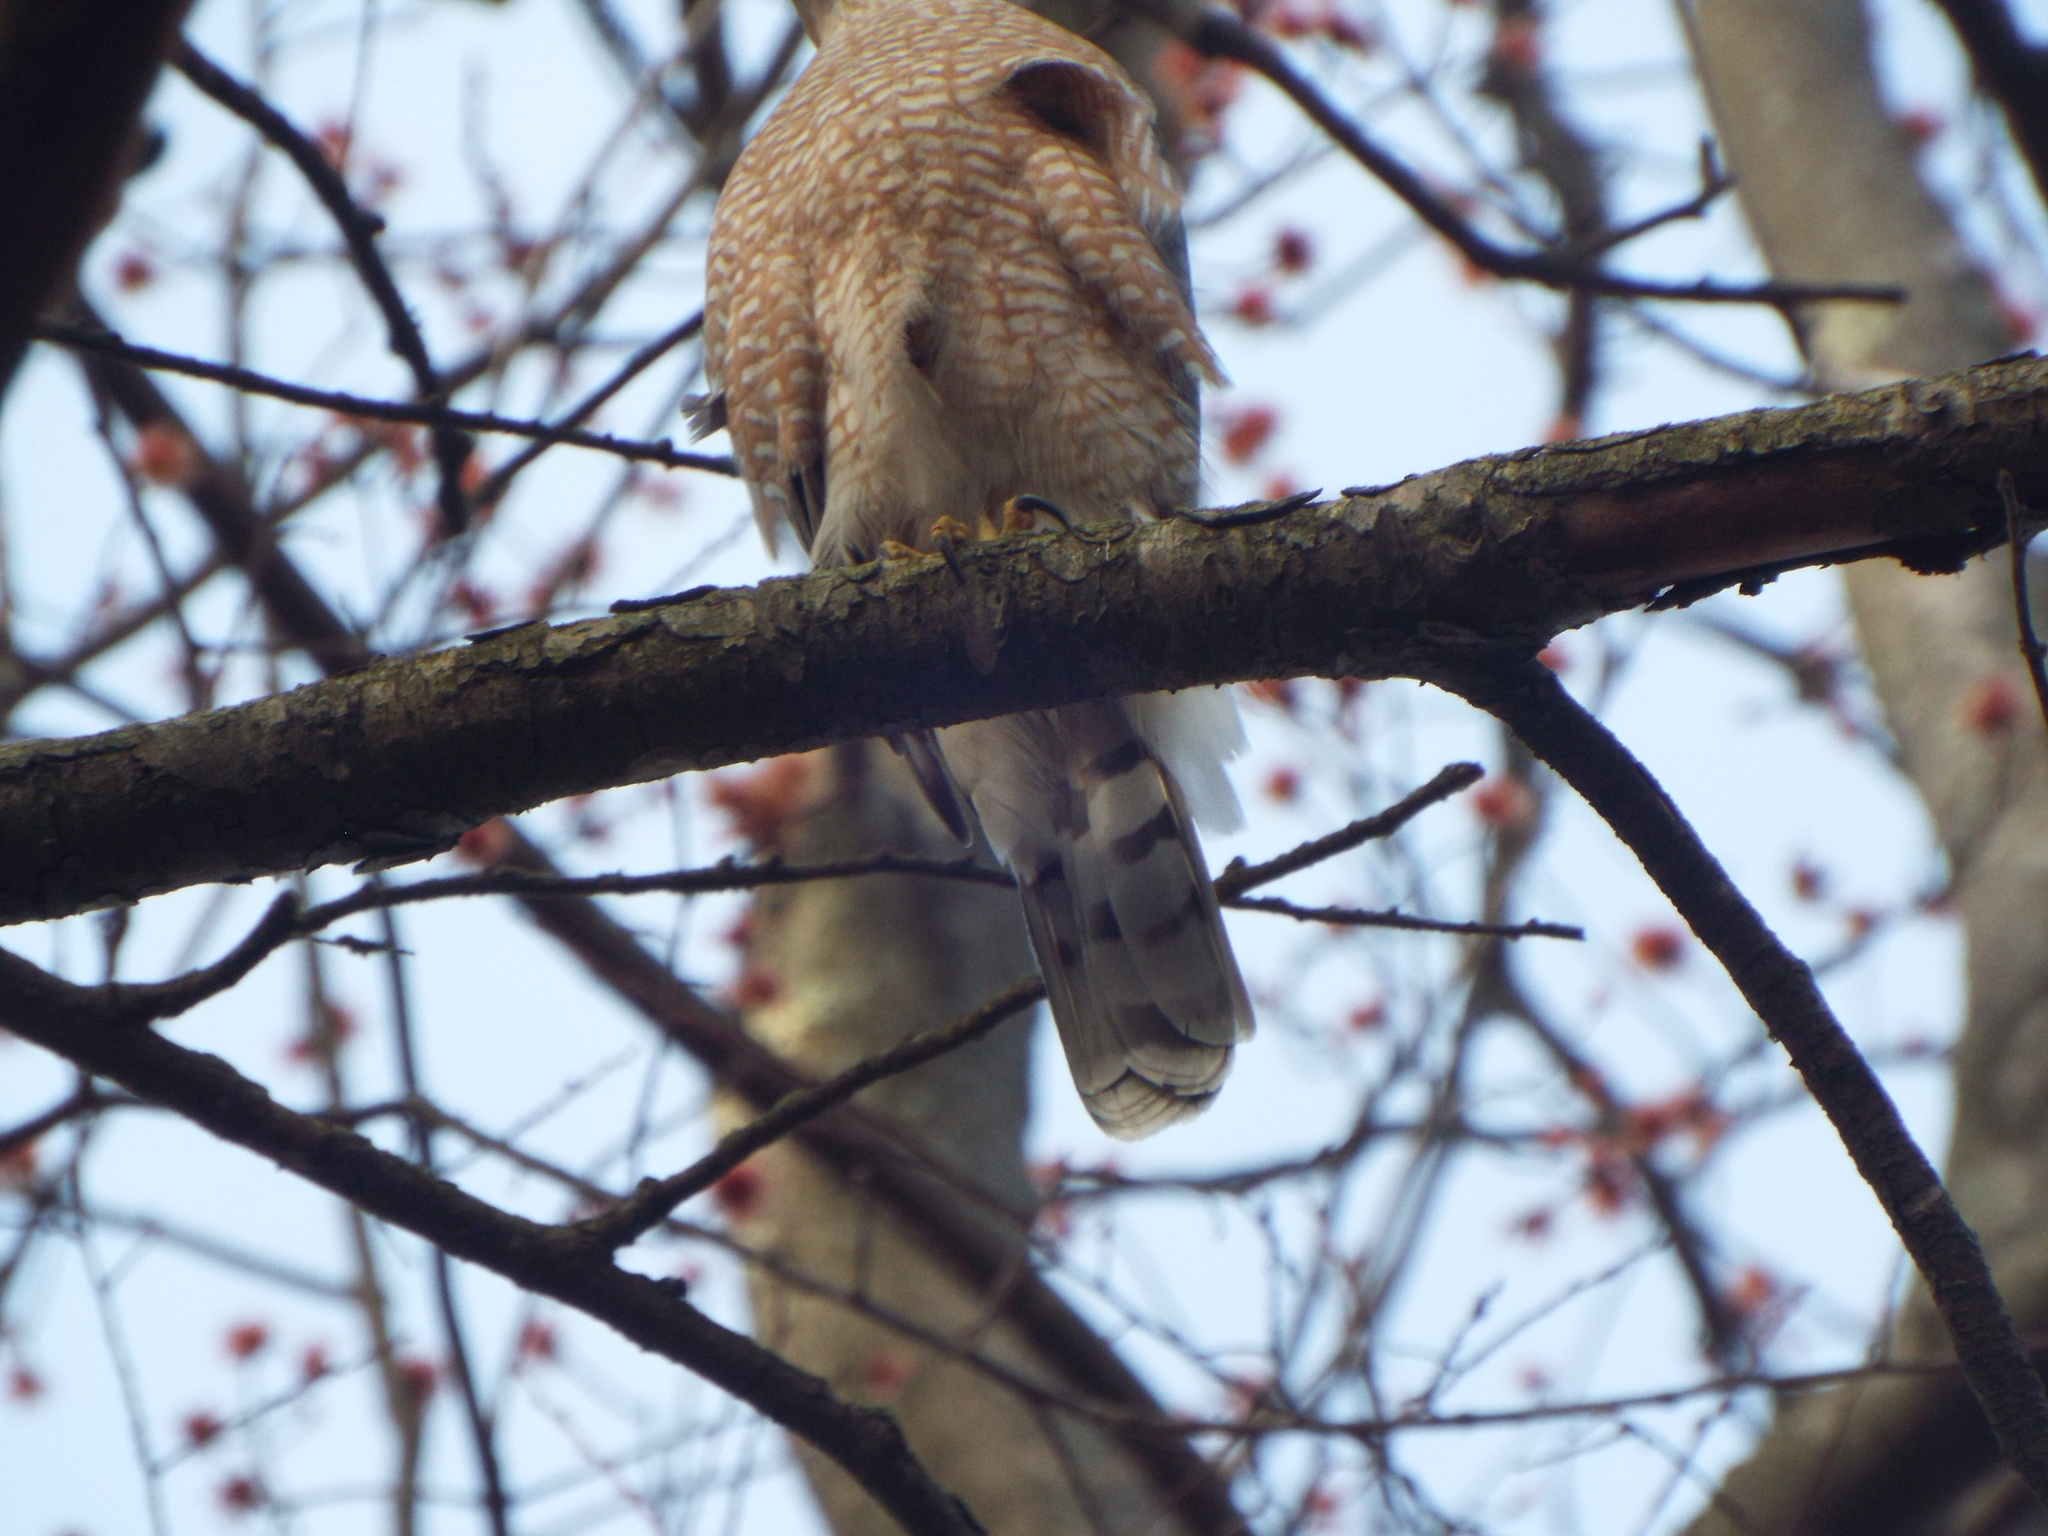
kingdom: Animalia
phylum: Chordata
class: Aves
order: Accipitriformes
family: Accipitridae
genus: Accipiter
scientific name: Accipiter cooperii
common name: Cooper's hawk
